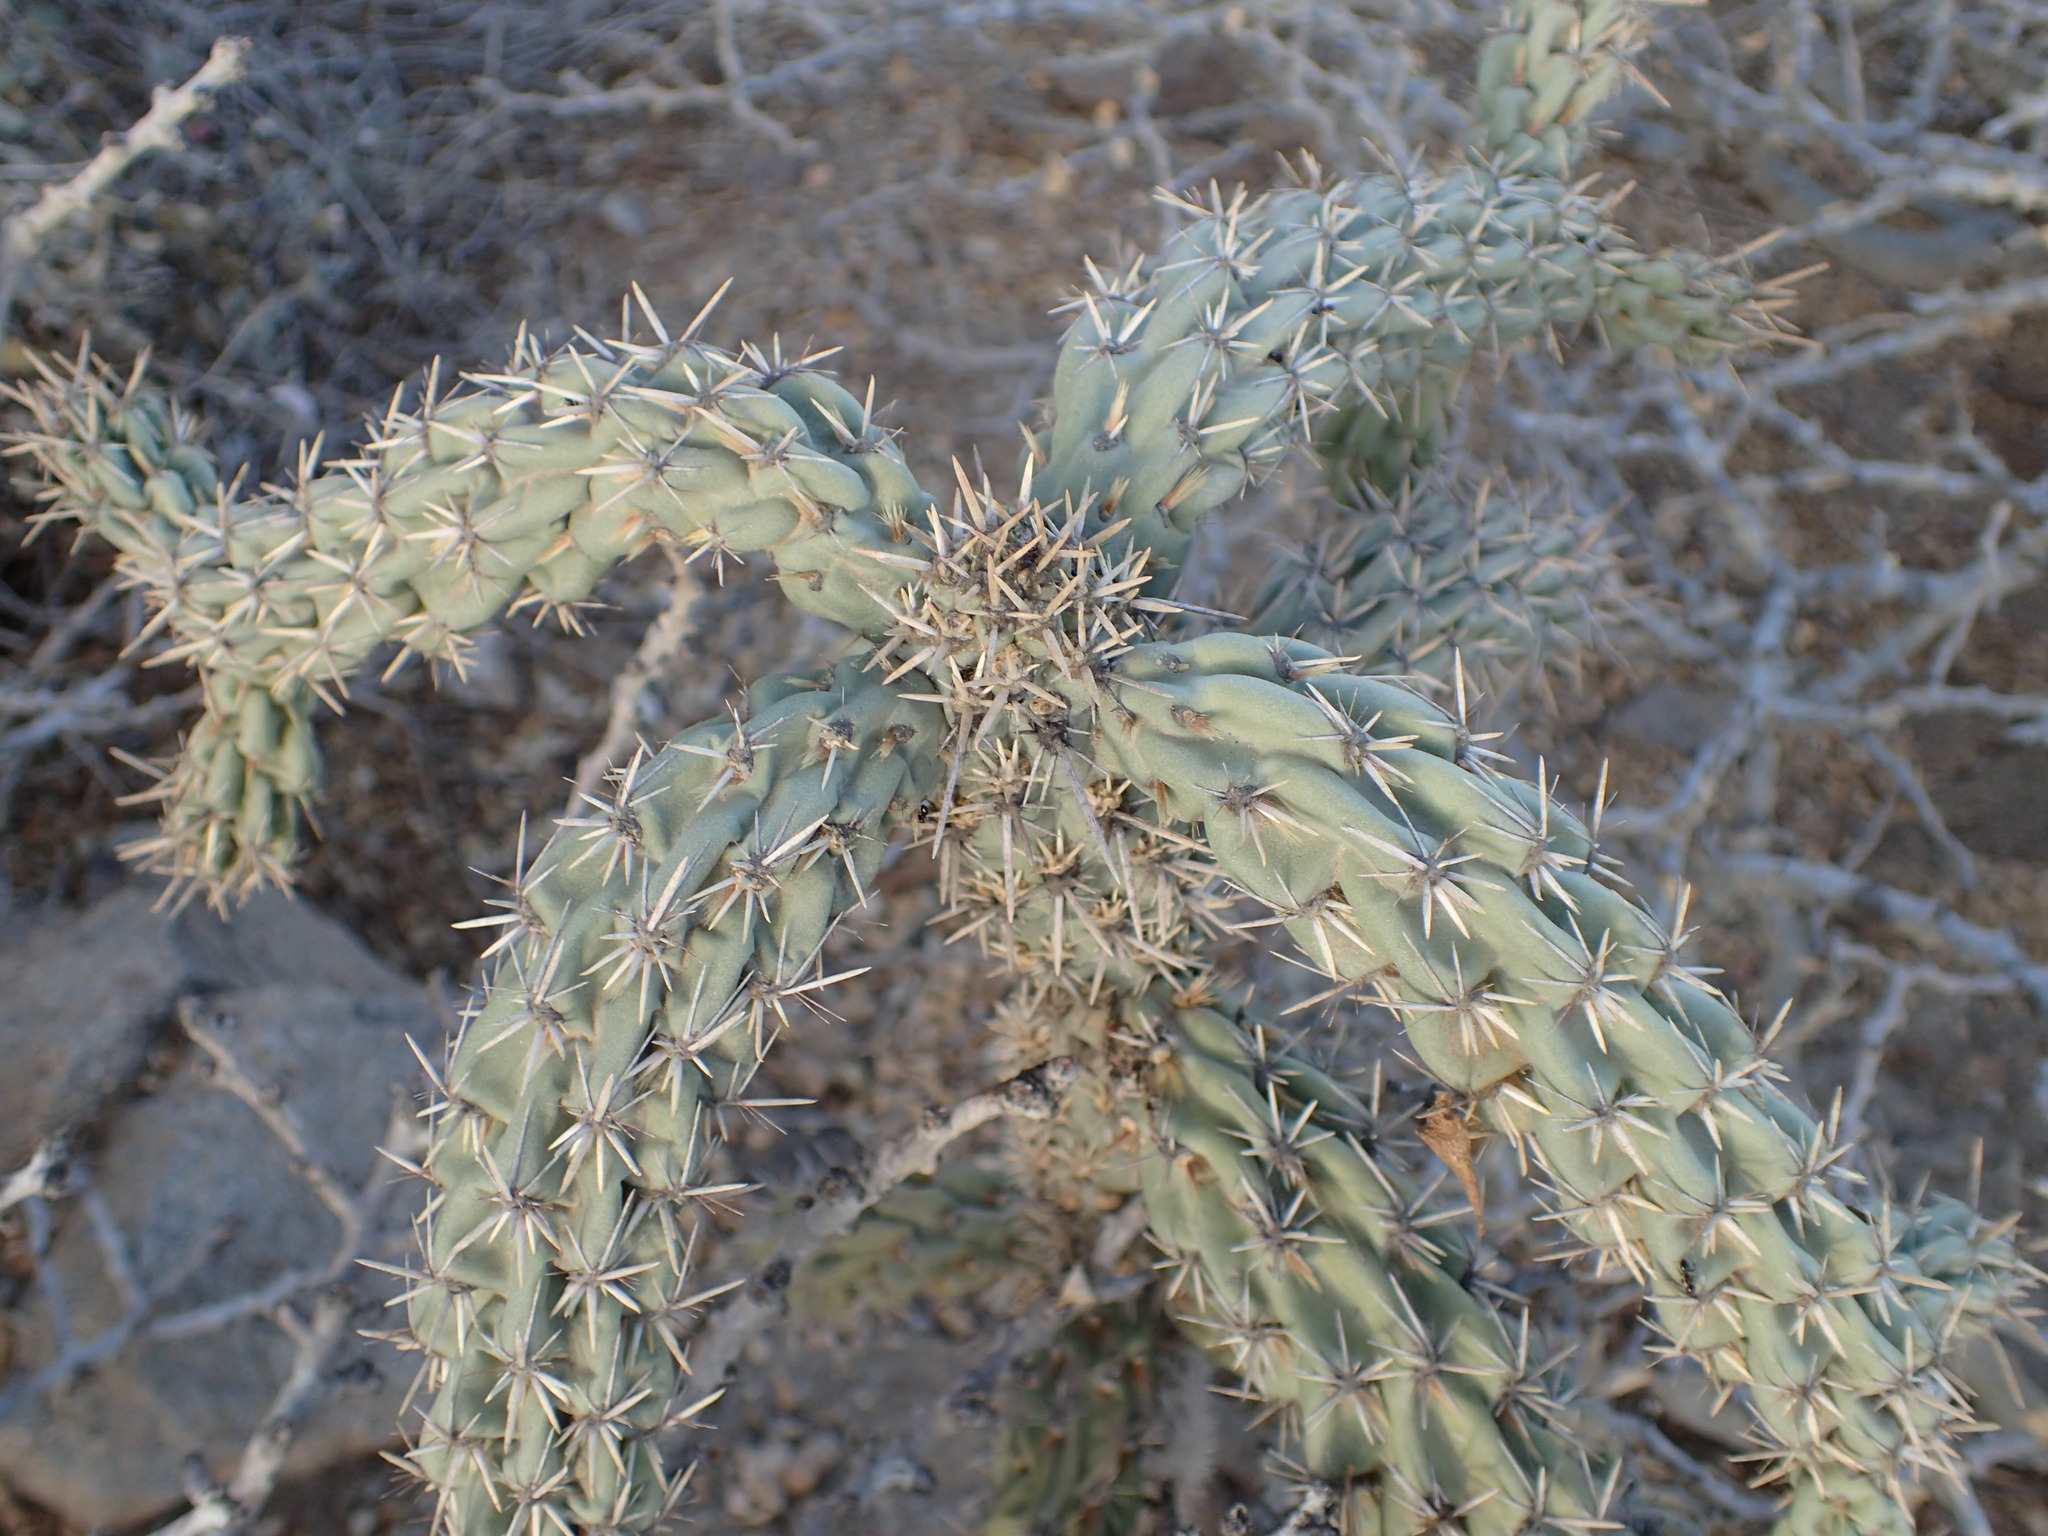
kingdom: Plantae
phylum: Tracheophyta
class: Magnoliopsida
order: Caryophyllales
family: Cactaceae
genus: Cylindropuntia
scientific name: Cylindropuntia cholla
